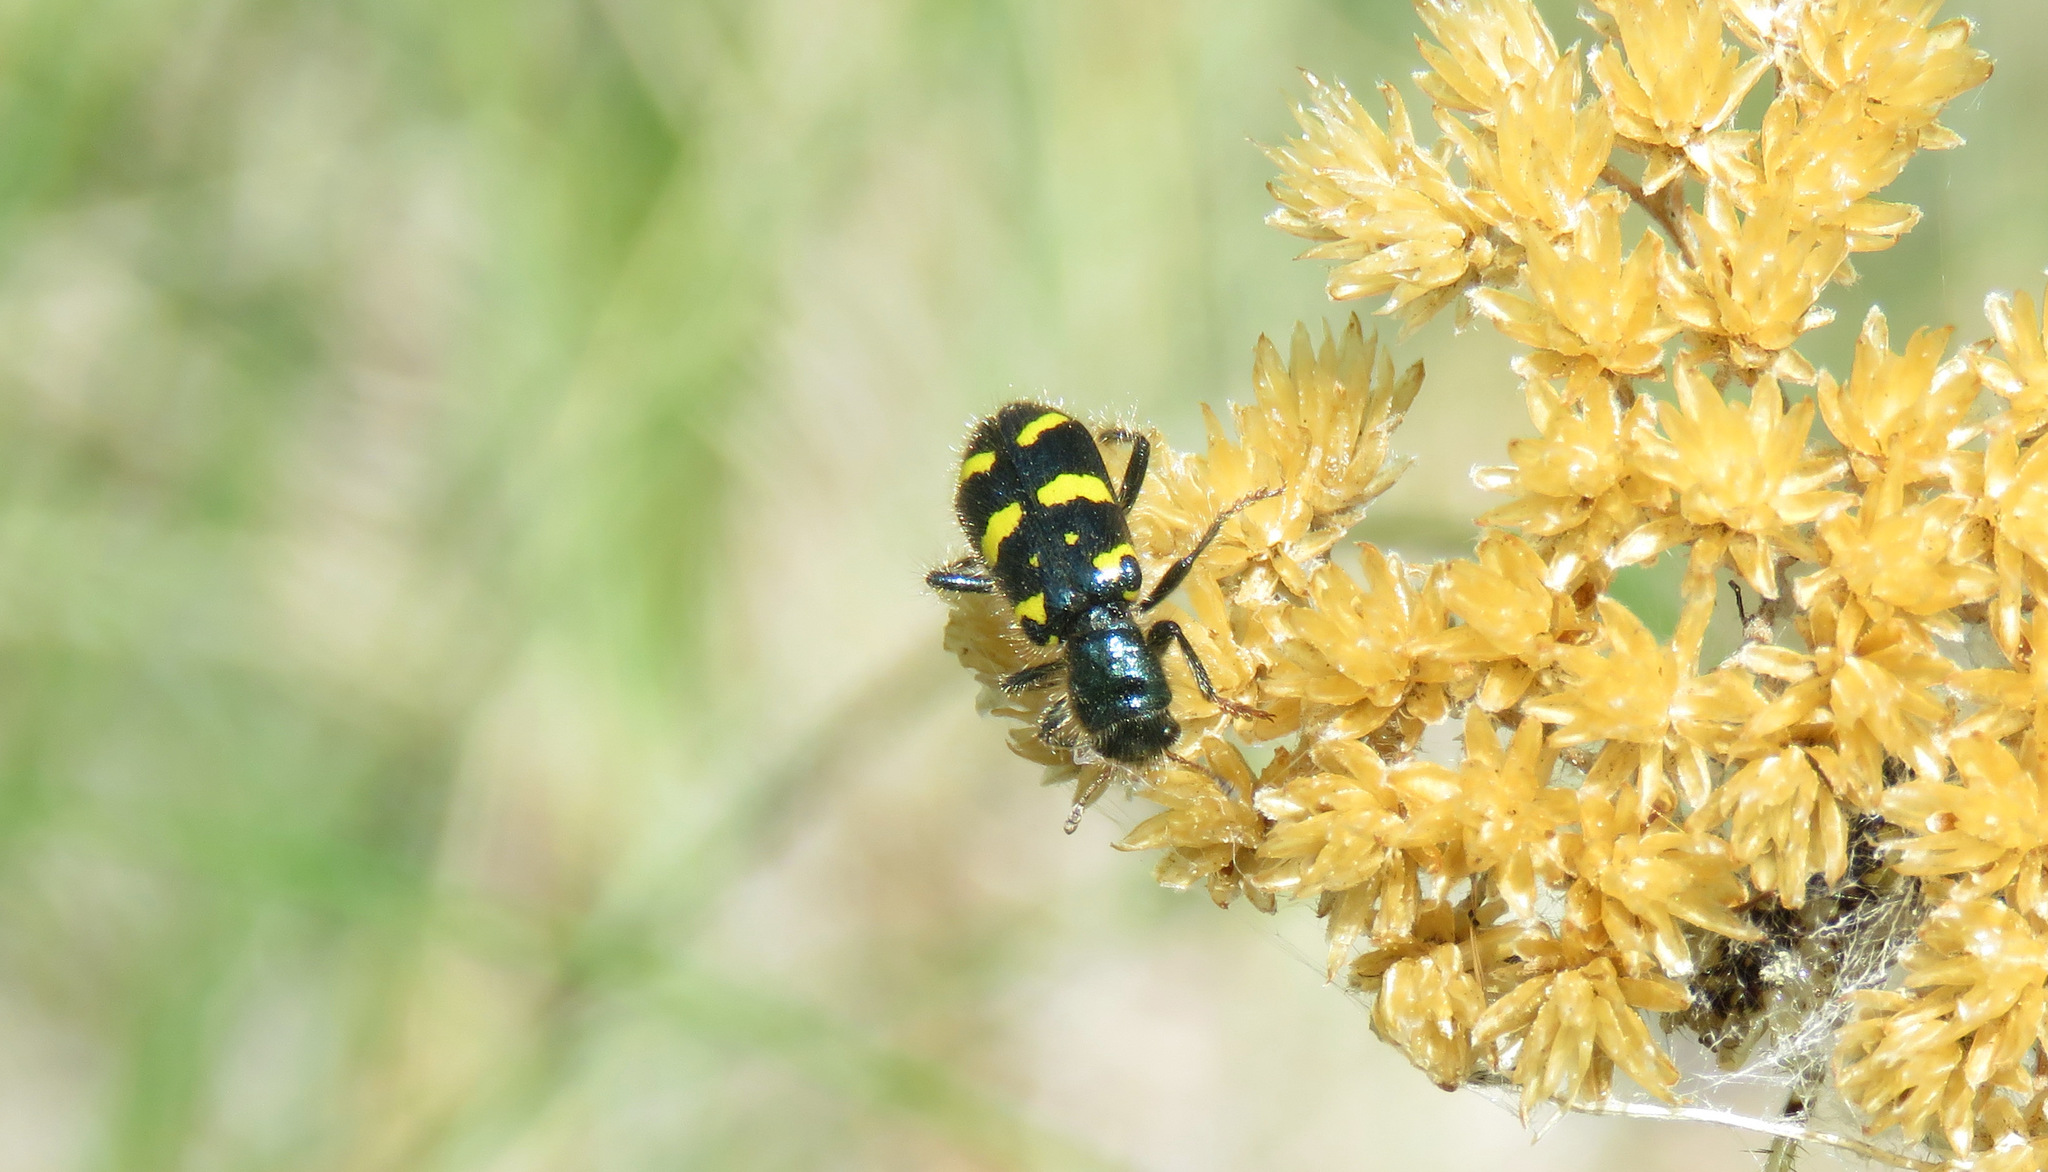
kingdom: Animalia
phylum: Arthropoda
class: Insecta
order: Coleoptera
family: Cleridae
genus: Trichodes
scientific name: Trichodes ornatus
